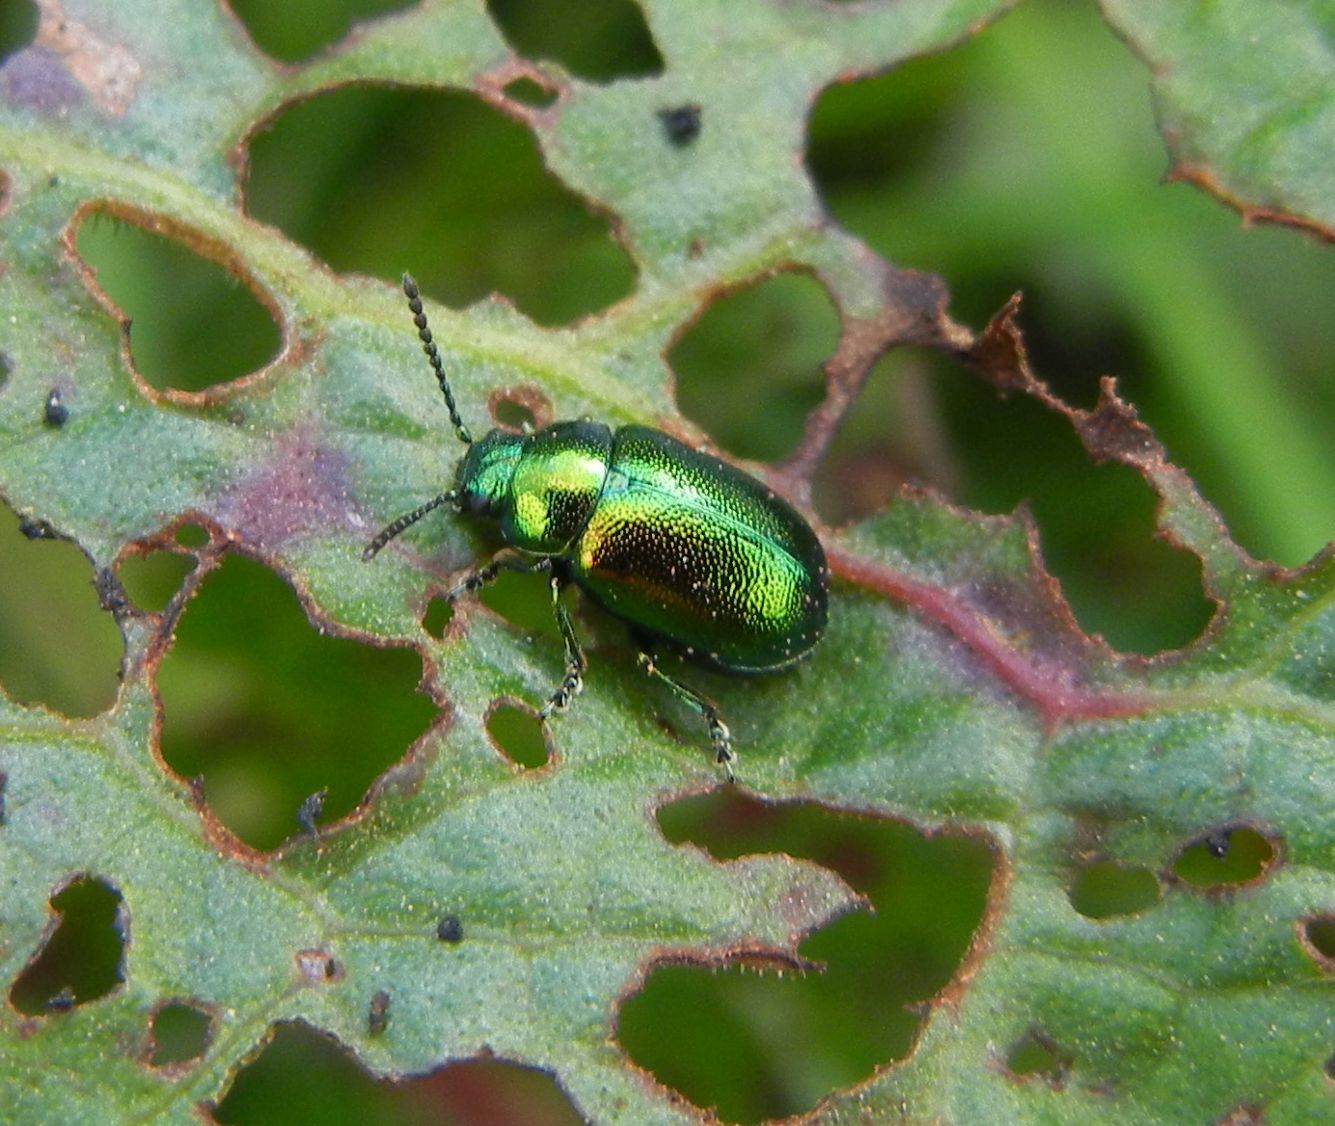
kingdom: Animalia
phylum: Arthropoda
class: Insecta
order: Coleoptera
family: Chrysomelidae
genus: Gastrophysa
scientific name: Gastrophysa viridula
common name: Green dock beetle
